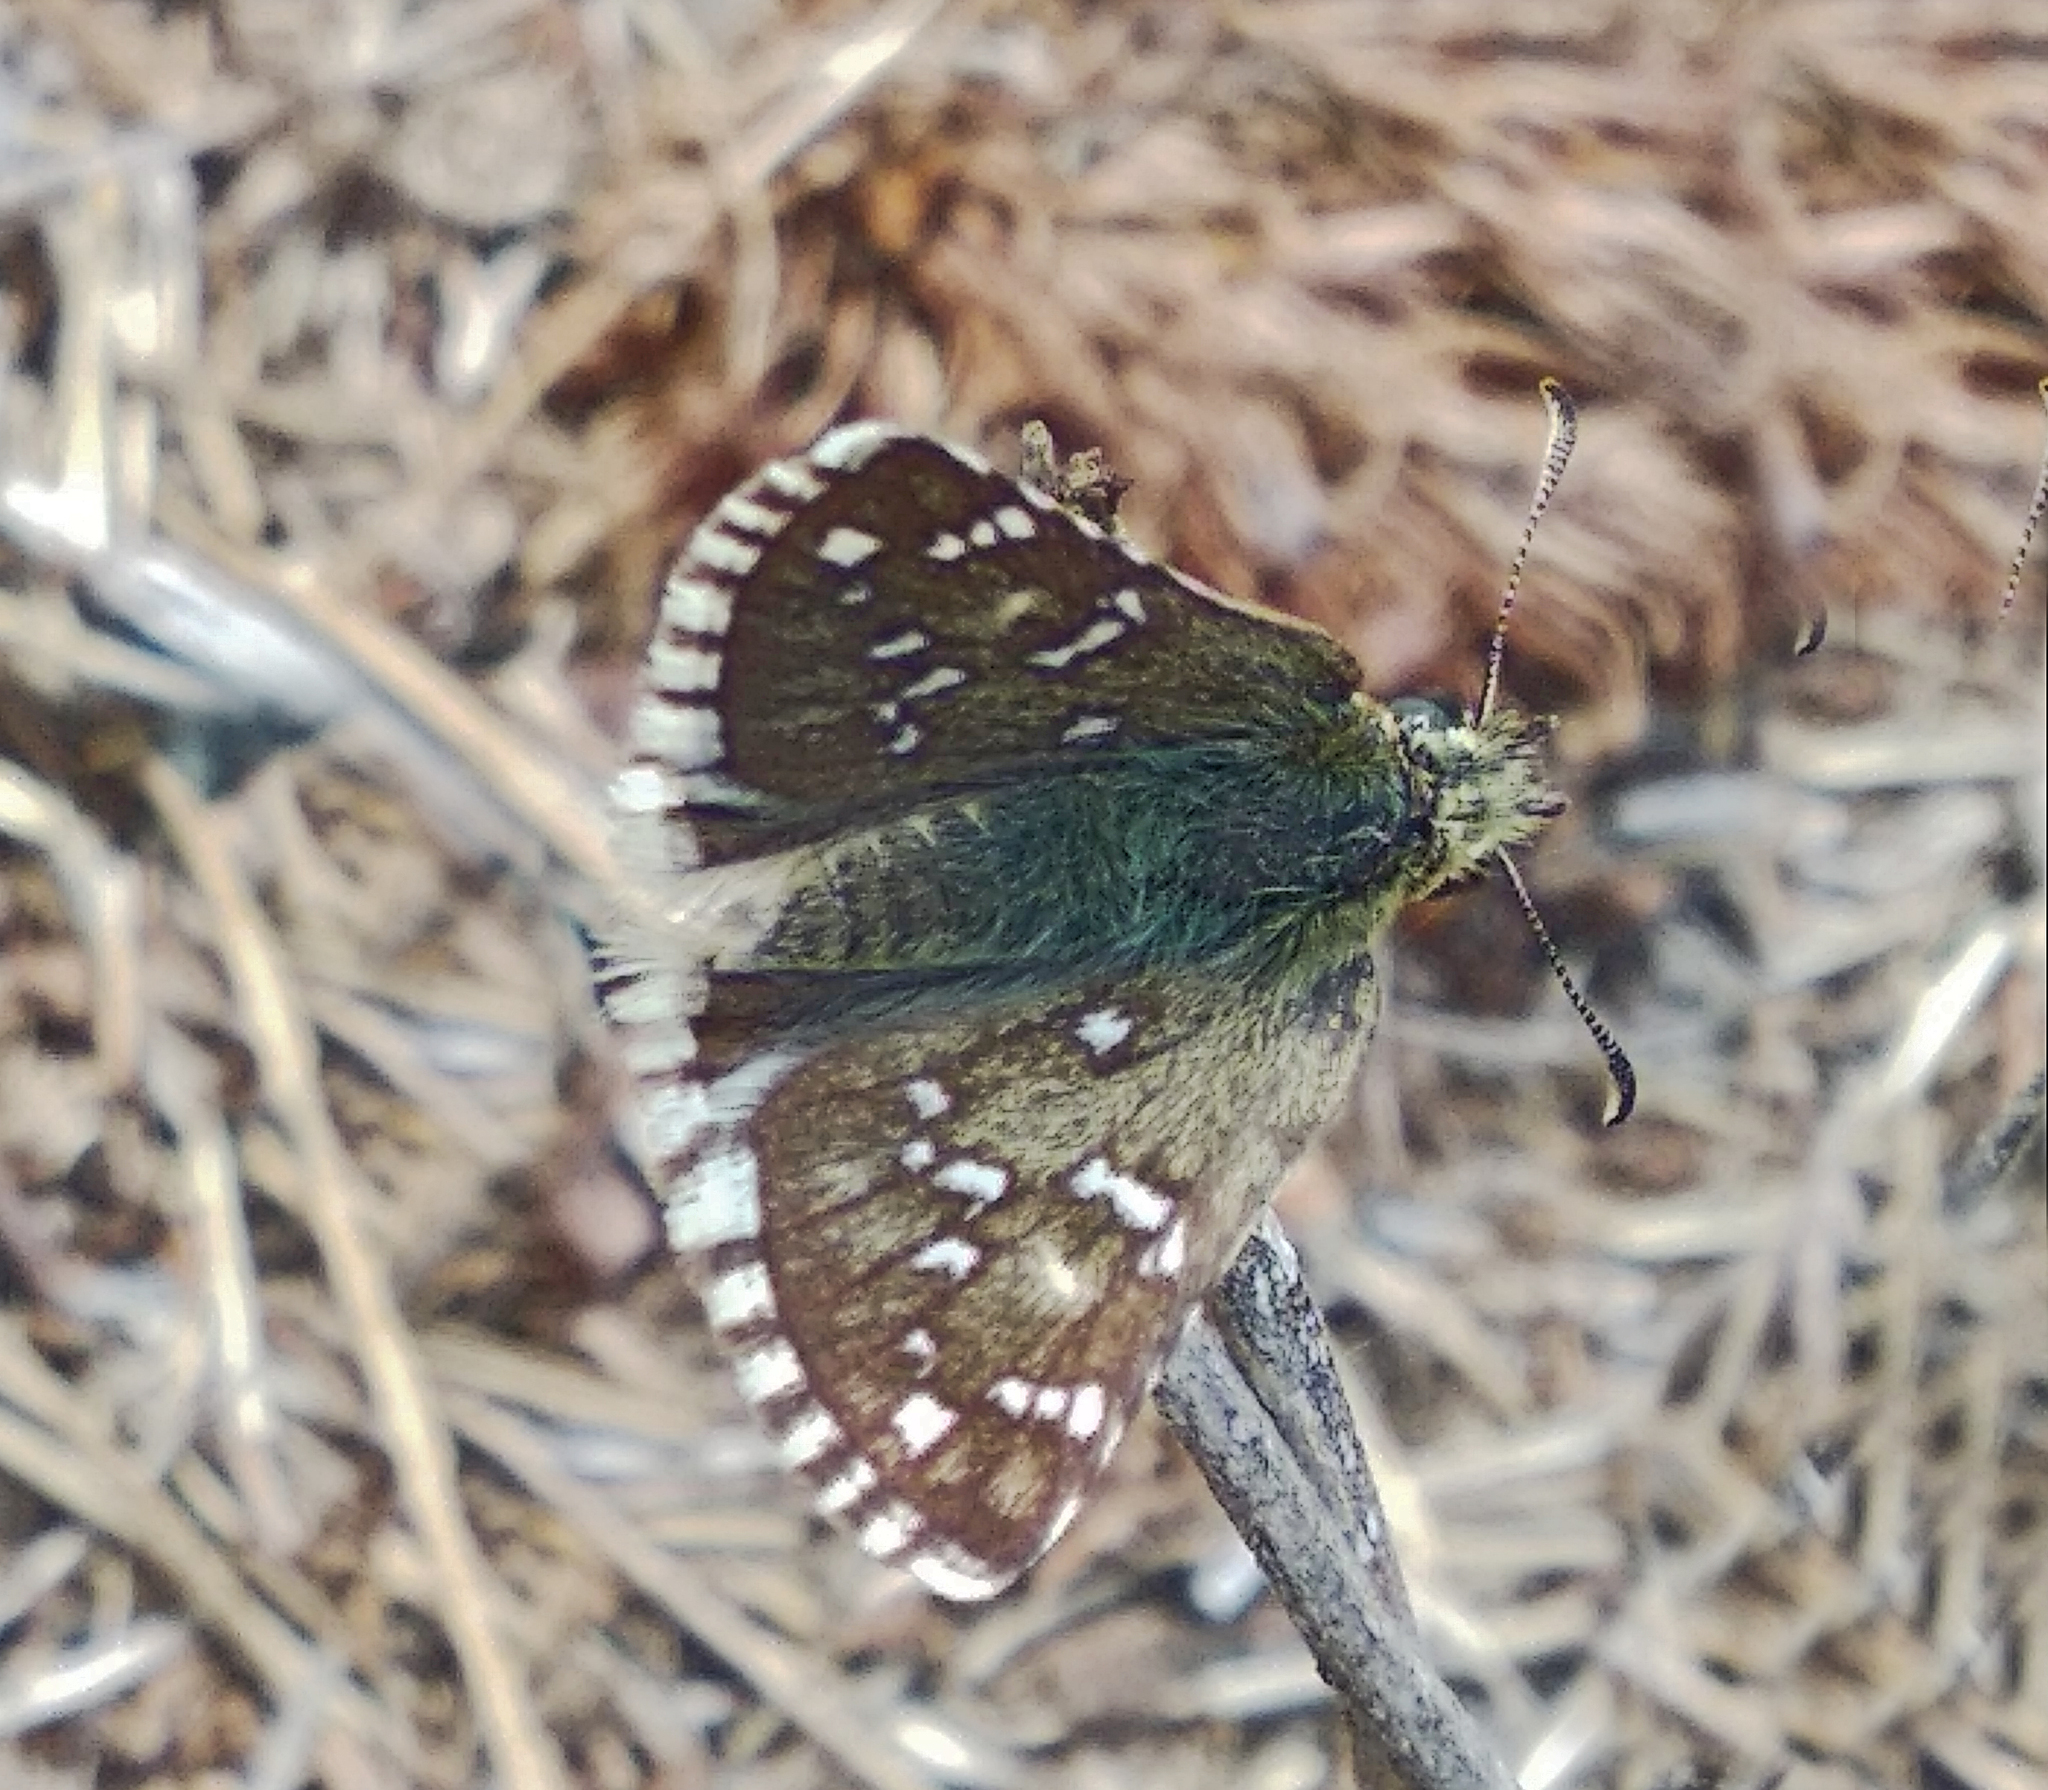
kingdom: Animalia
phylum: Arthropoda
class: Insecta
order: Lepidoptera
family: Hesperiidae
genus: Pyrgus
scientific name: Pyrgus armoricanus
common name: Oberthür's grizzled skipper
